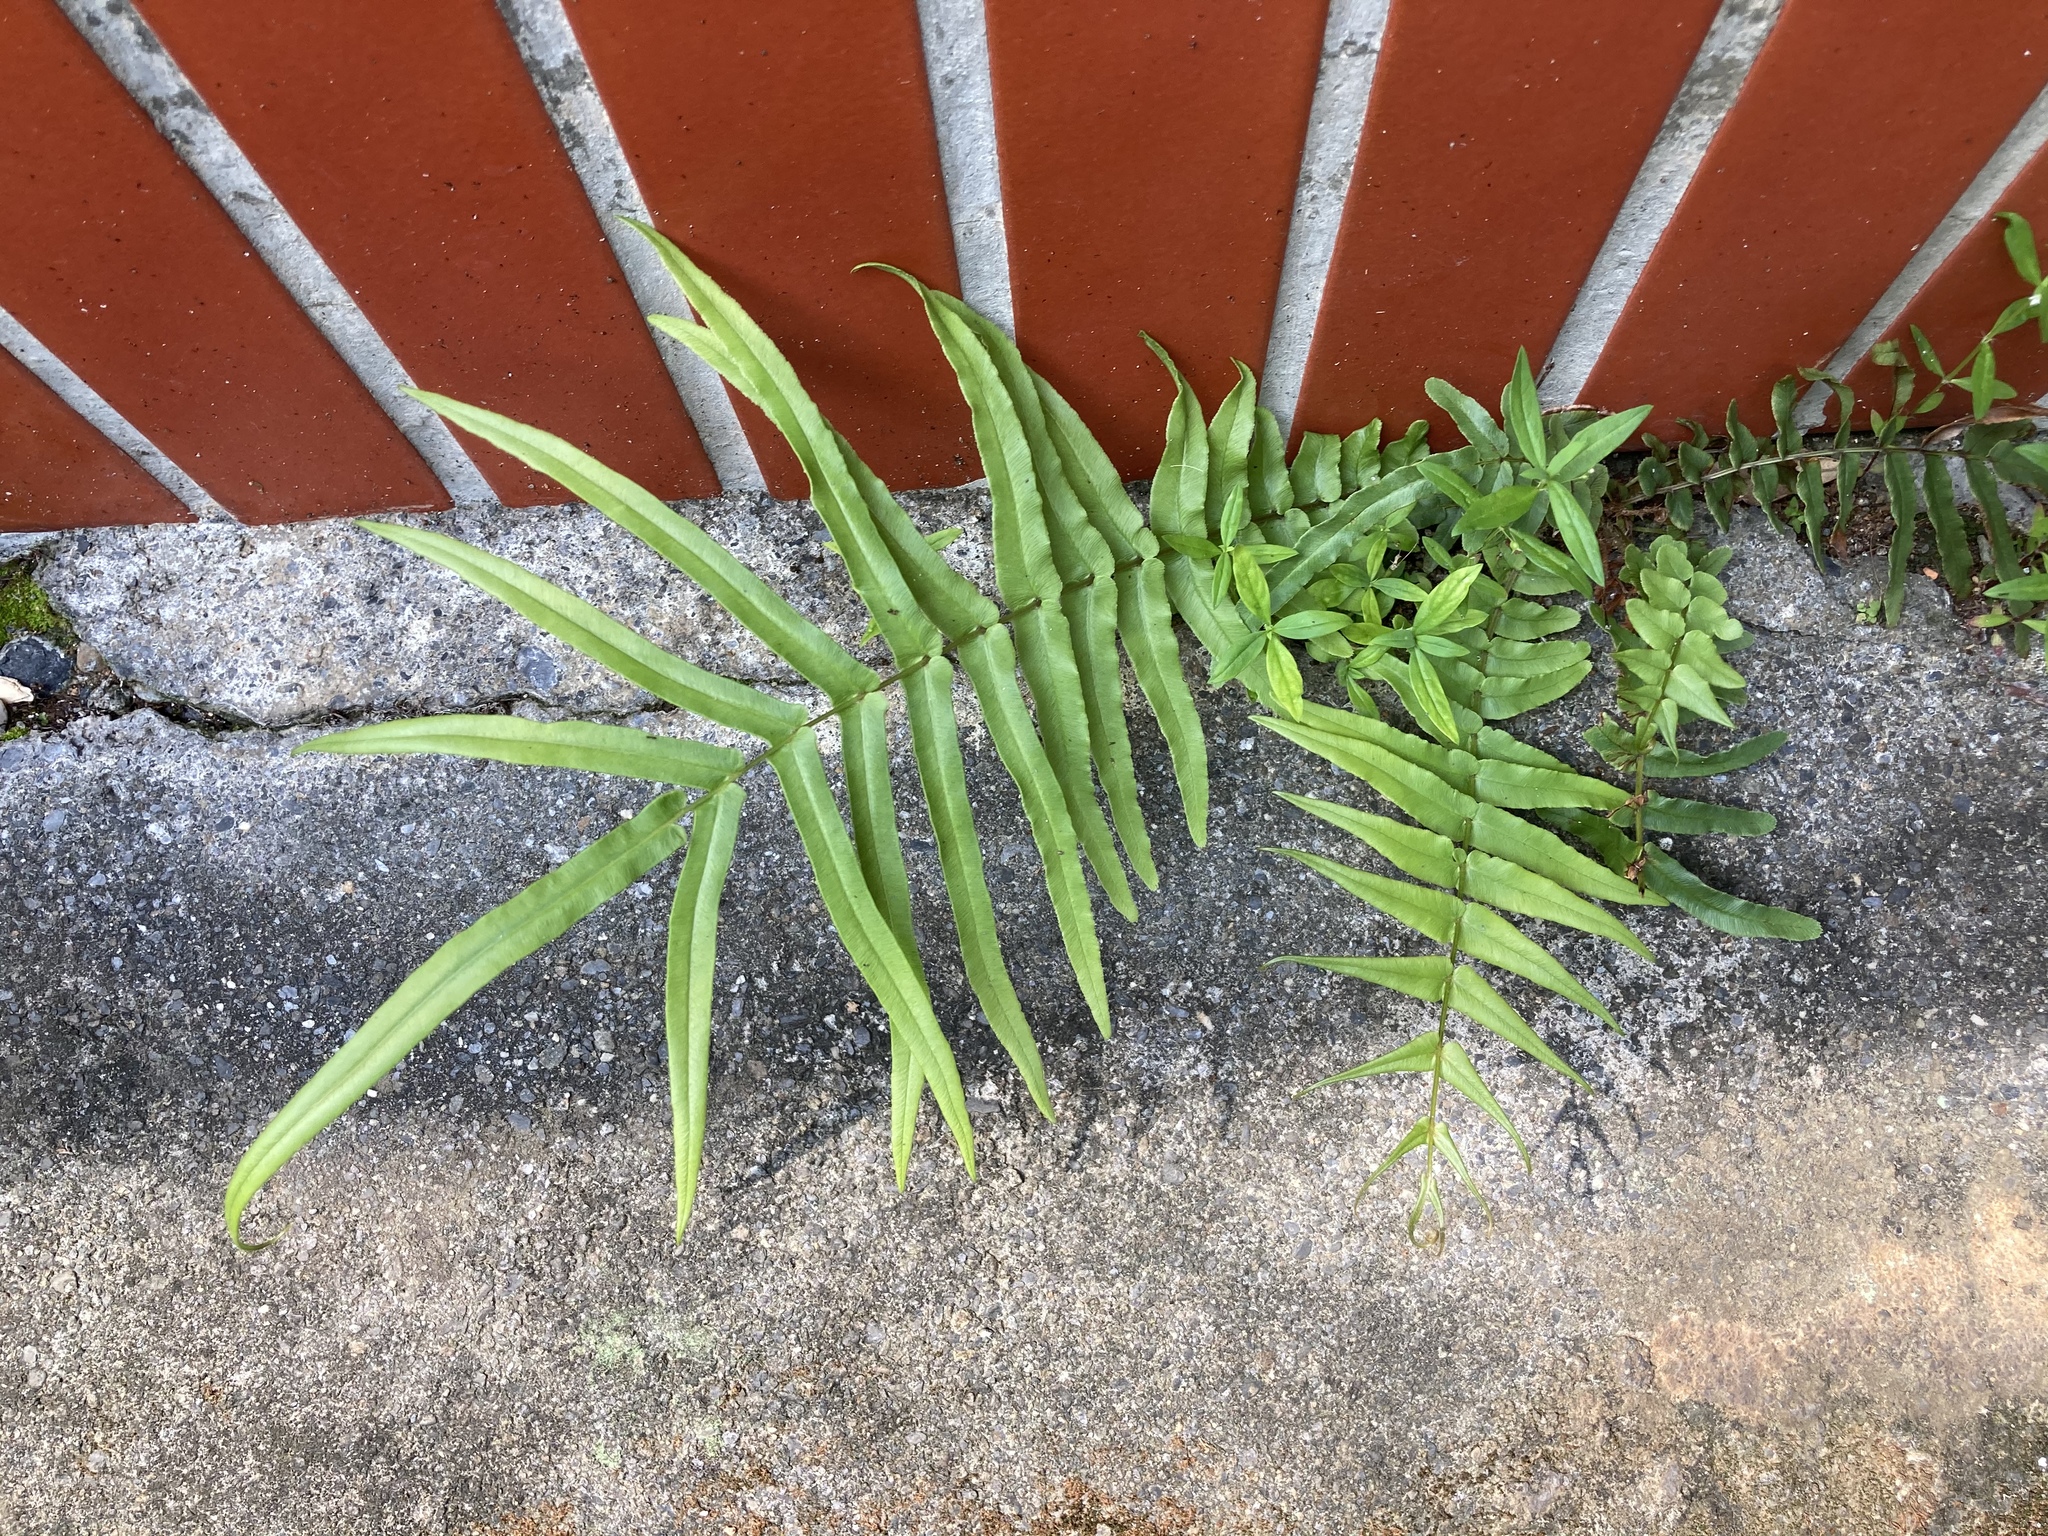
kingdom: Plantae
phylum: Tracheophyta
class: Polypodiopsida
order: Polypodiales
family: Pteridaceae
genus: Pteris
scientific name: Pteris vittata
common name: Ladder brake
